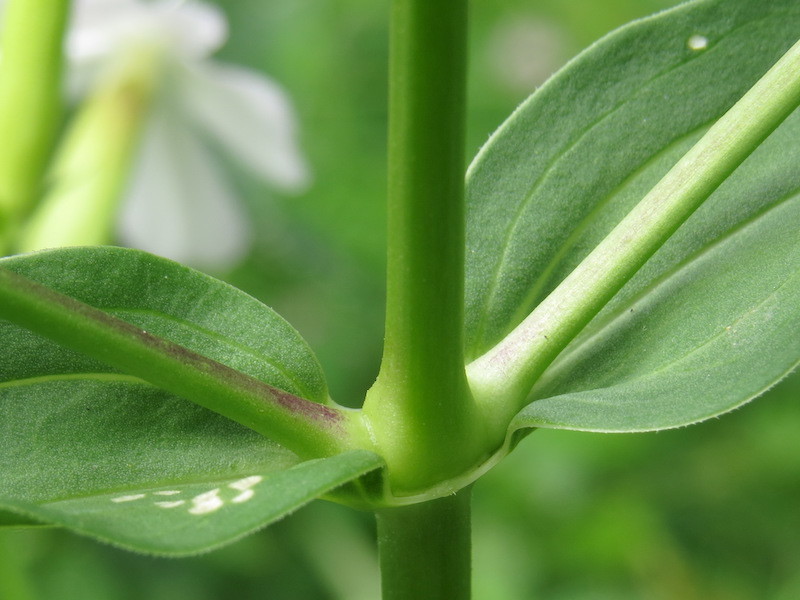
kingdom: Plantae
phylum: Tracheophyta
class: Magnoliopsida
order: Caryophyllales
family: Caryophyllaceae
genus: Saponaria
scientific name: Saponaria officinalis
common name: Soapwort
